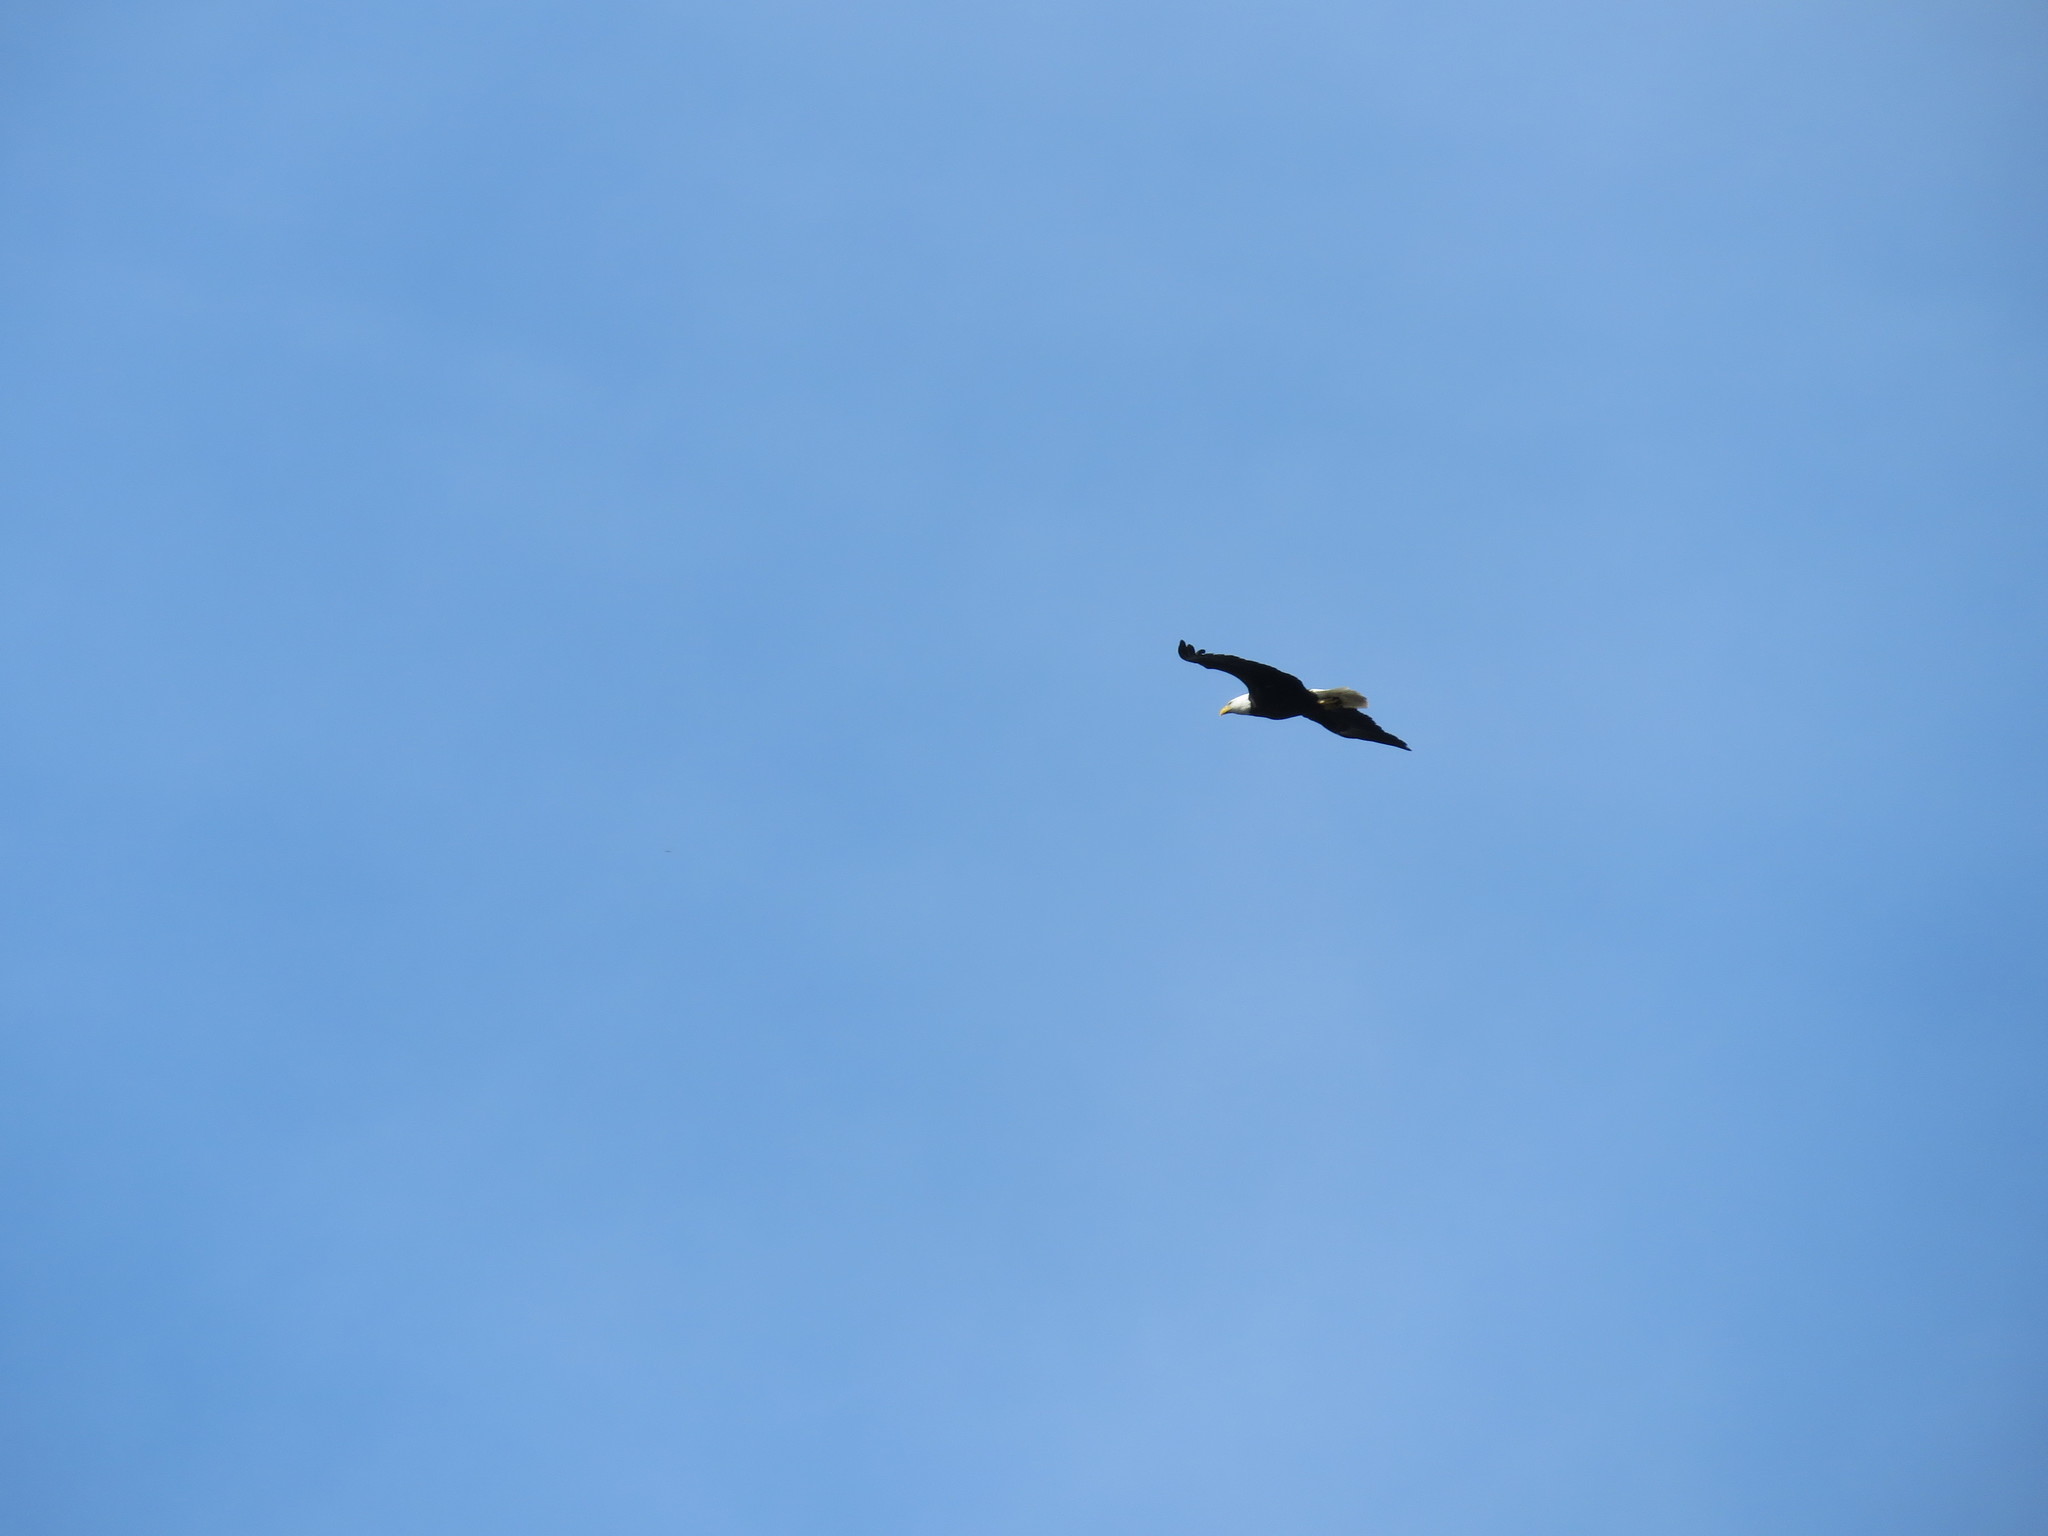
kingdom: Animalia
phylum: Chordata
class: Aves
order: Accipitriformes
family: Accipitridae
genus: Haliaeetus
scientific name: Haliaeetus leucocephalus
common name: Bald eagle
